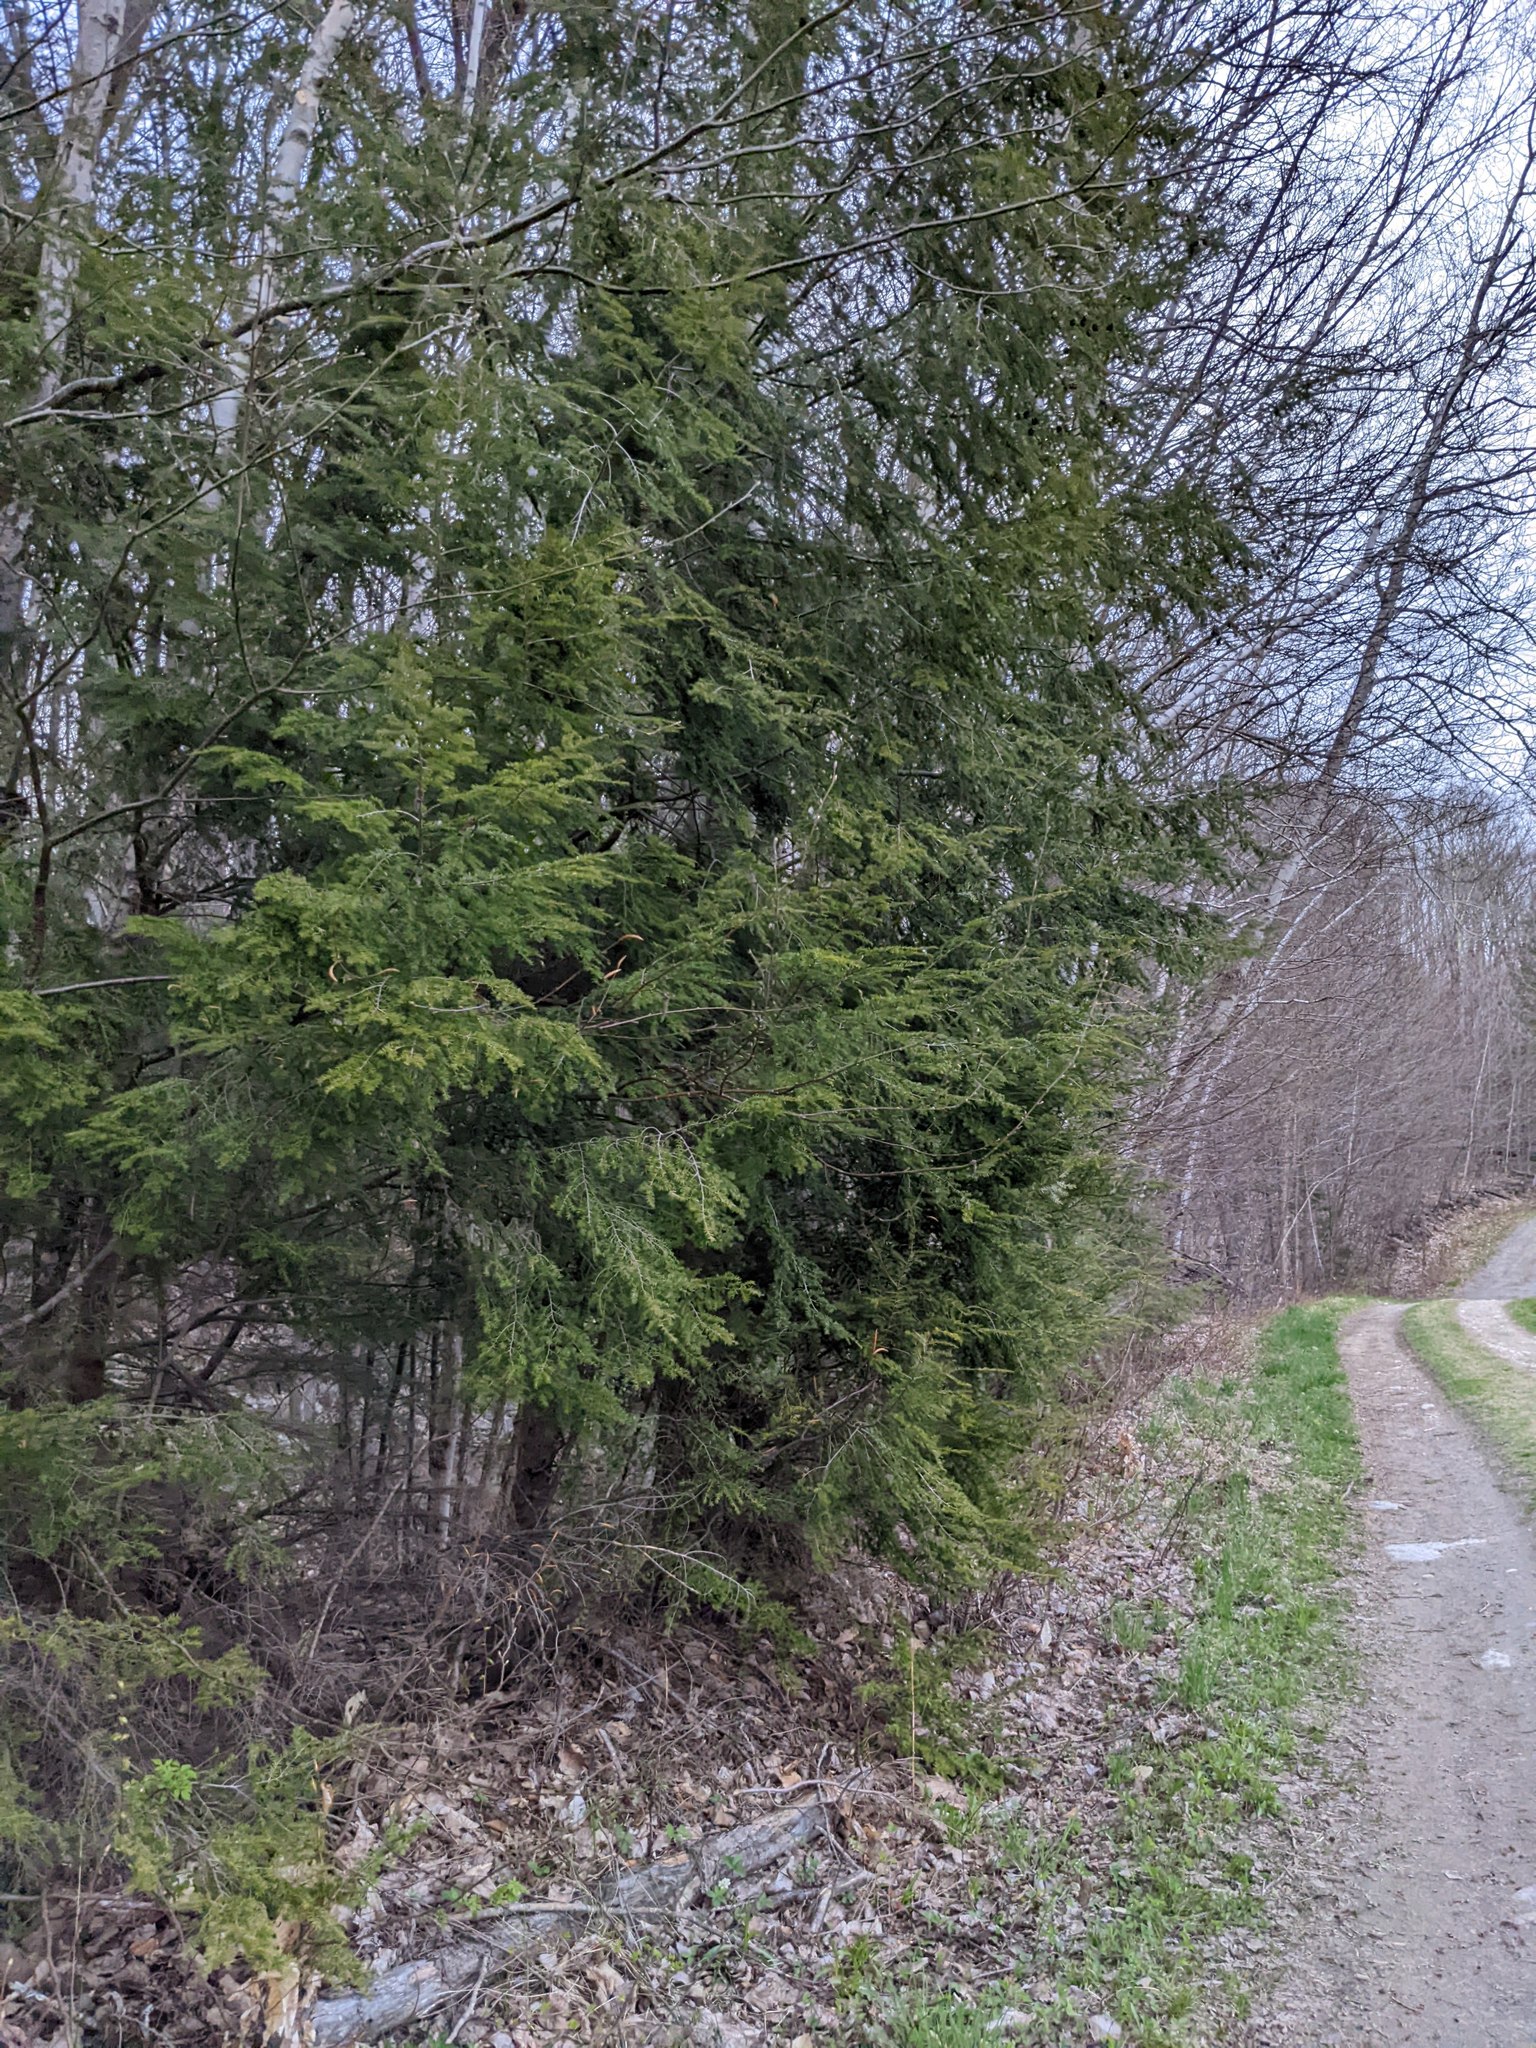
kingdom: Plantae
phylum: Tracheophyta
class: Pinopsida
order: Pinales
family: Pinaceae
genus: Tsuga
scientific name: Tsuga canadensis
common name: Eastern hemlock
